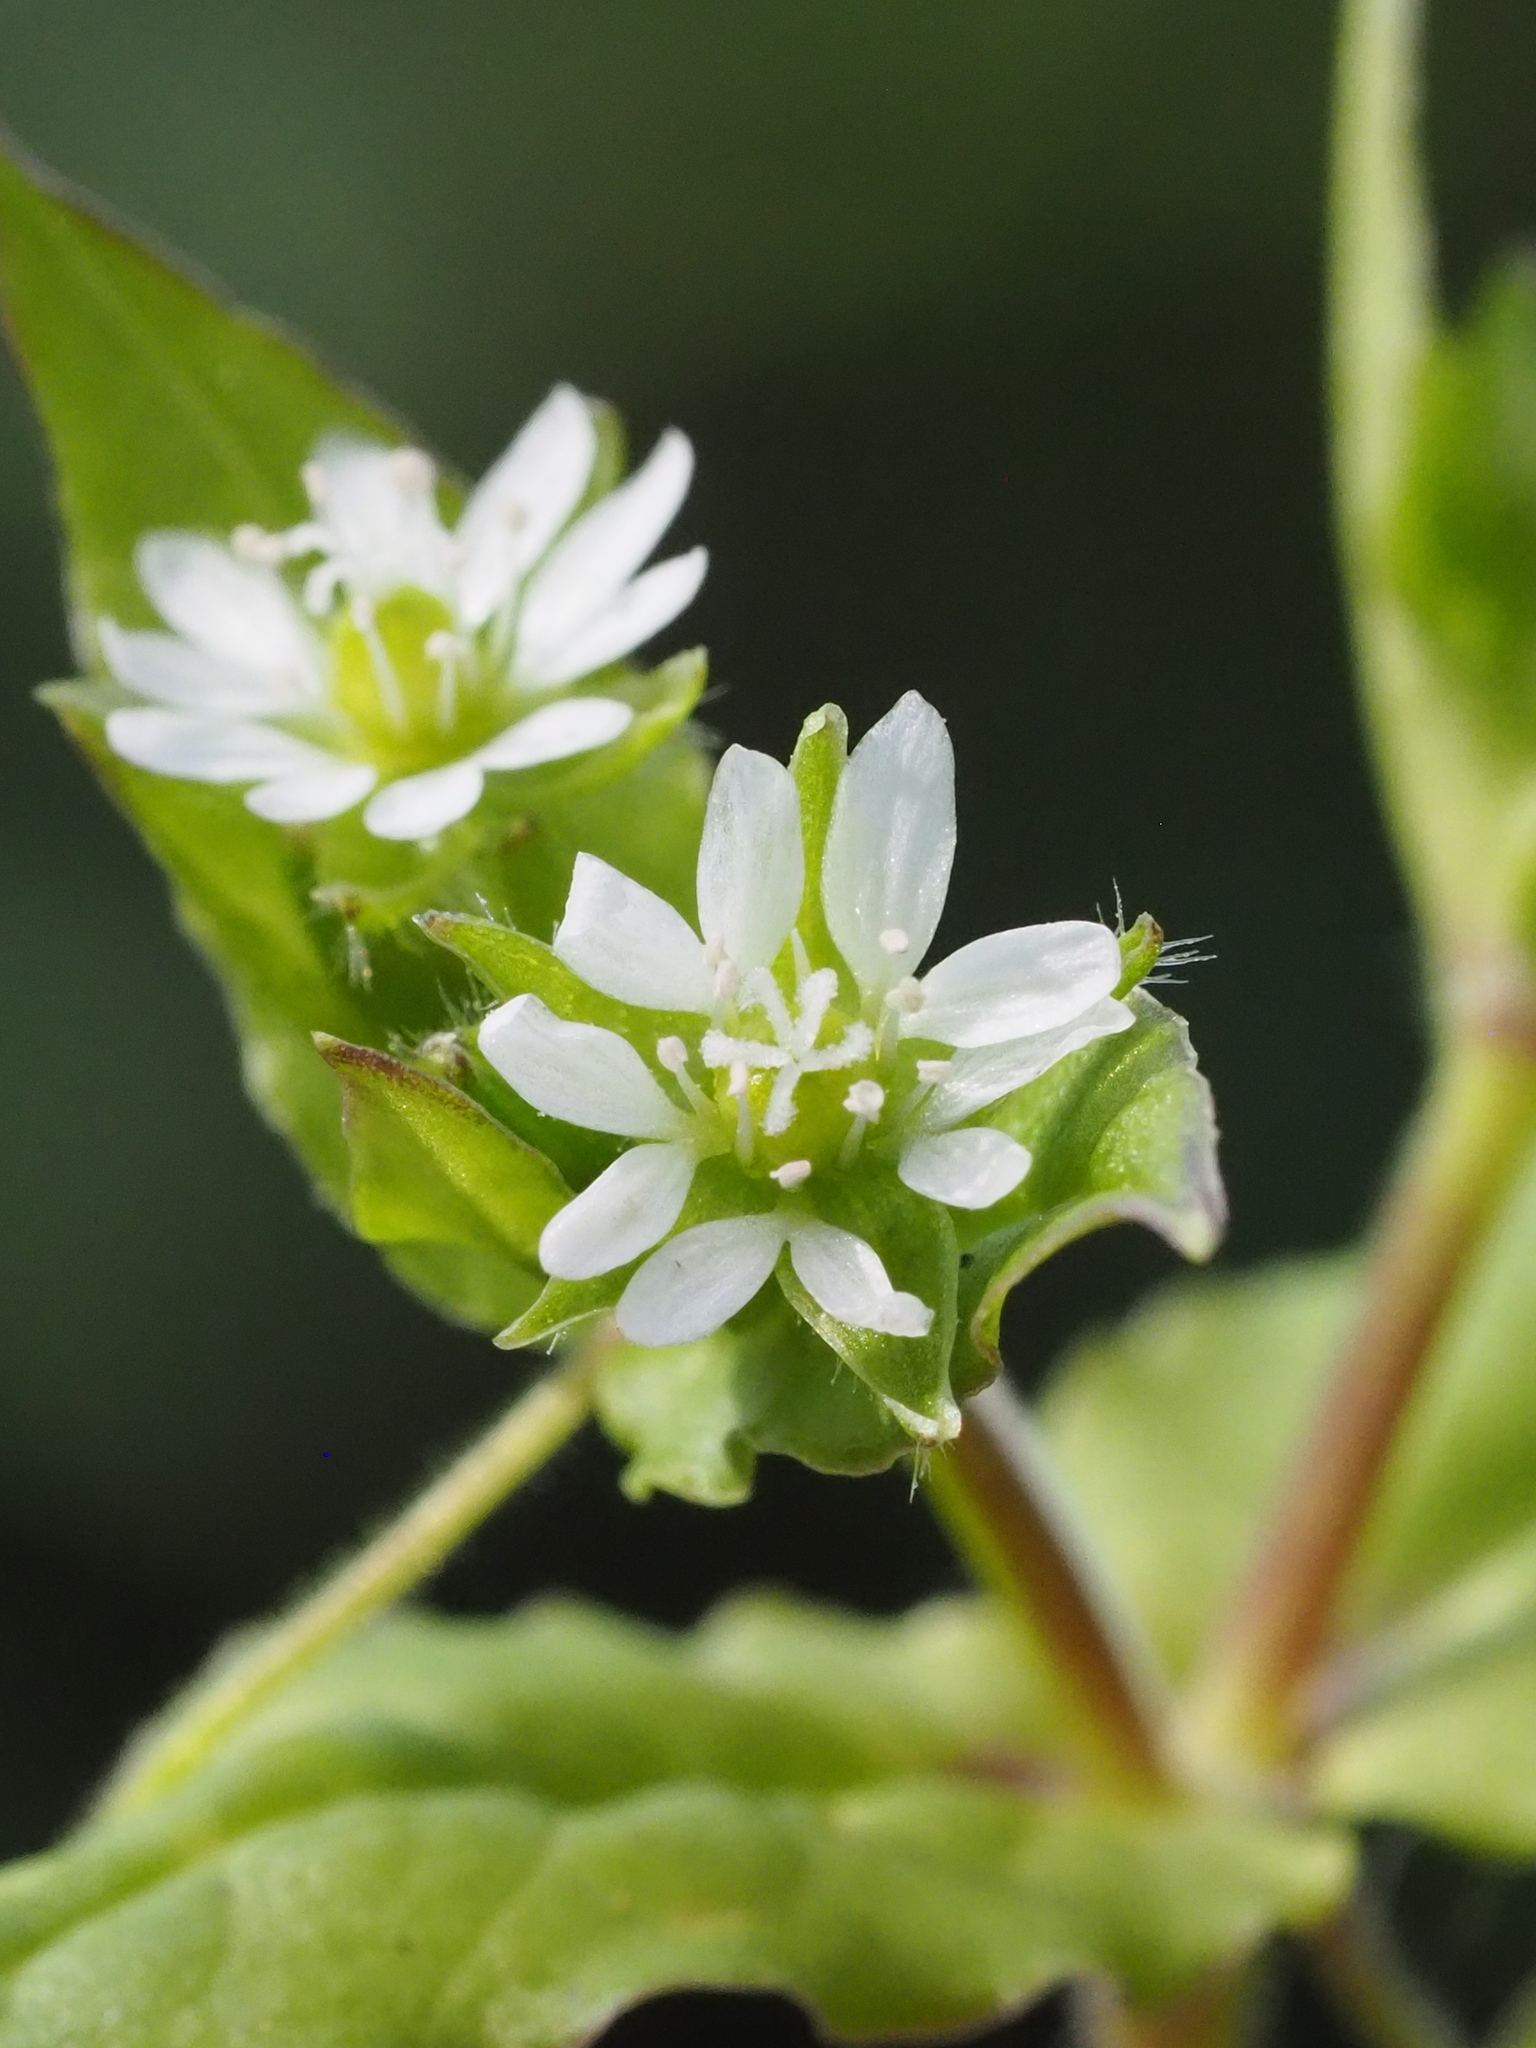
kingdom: Plantae
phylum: Tracheophyta
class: Magnoliopsida
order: Caryophyllales
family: Caryophyllaceae
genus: Stellaria
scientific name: Stellaria aquatica
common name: Water chickweed
